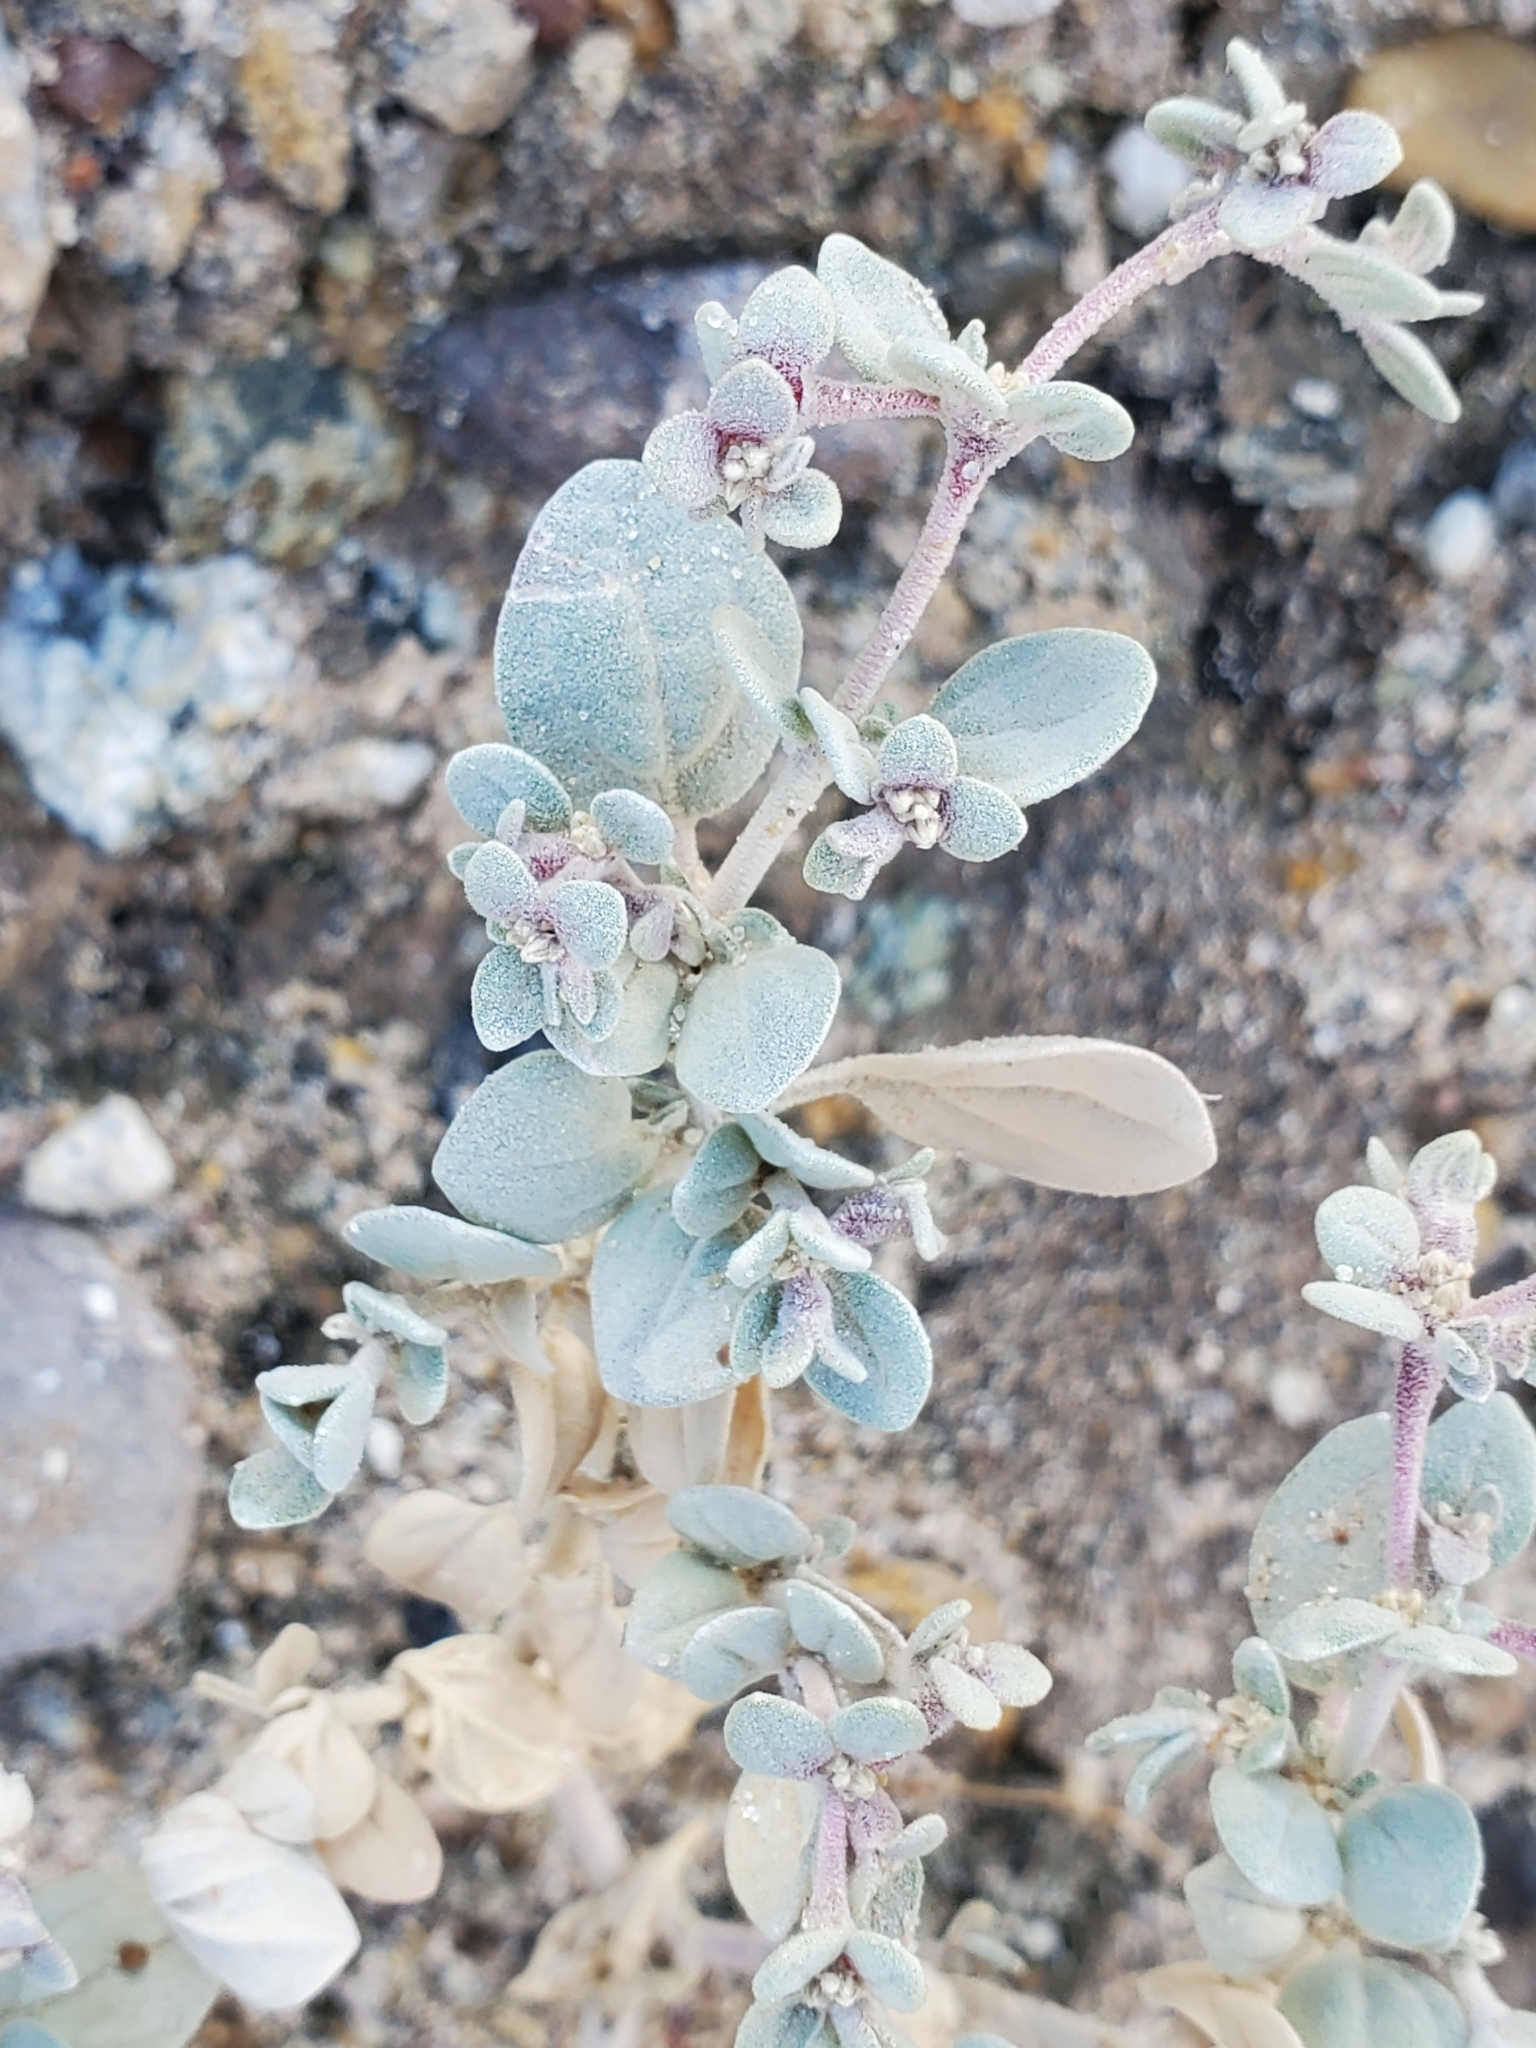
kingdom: Plantae
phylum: Tracheophyta
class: Magnoliopsida
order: Caryophyllales
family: Amaranthaceae
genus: Tidestromia
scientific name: Tidestromia suffruticosa
